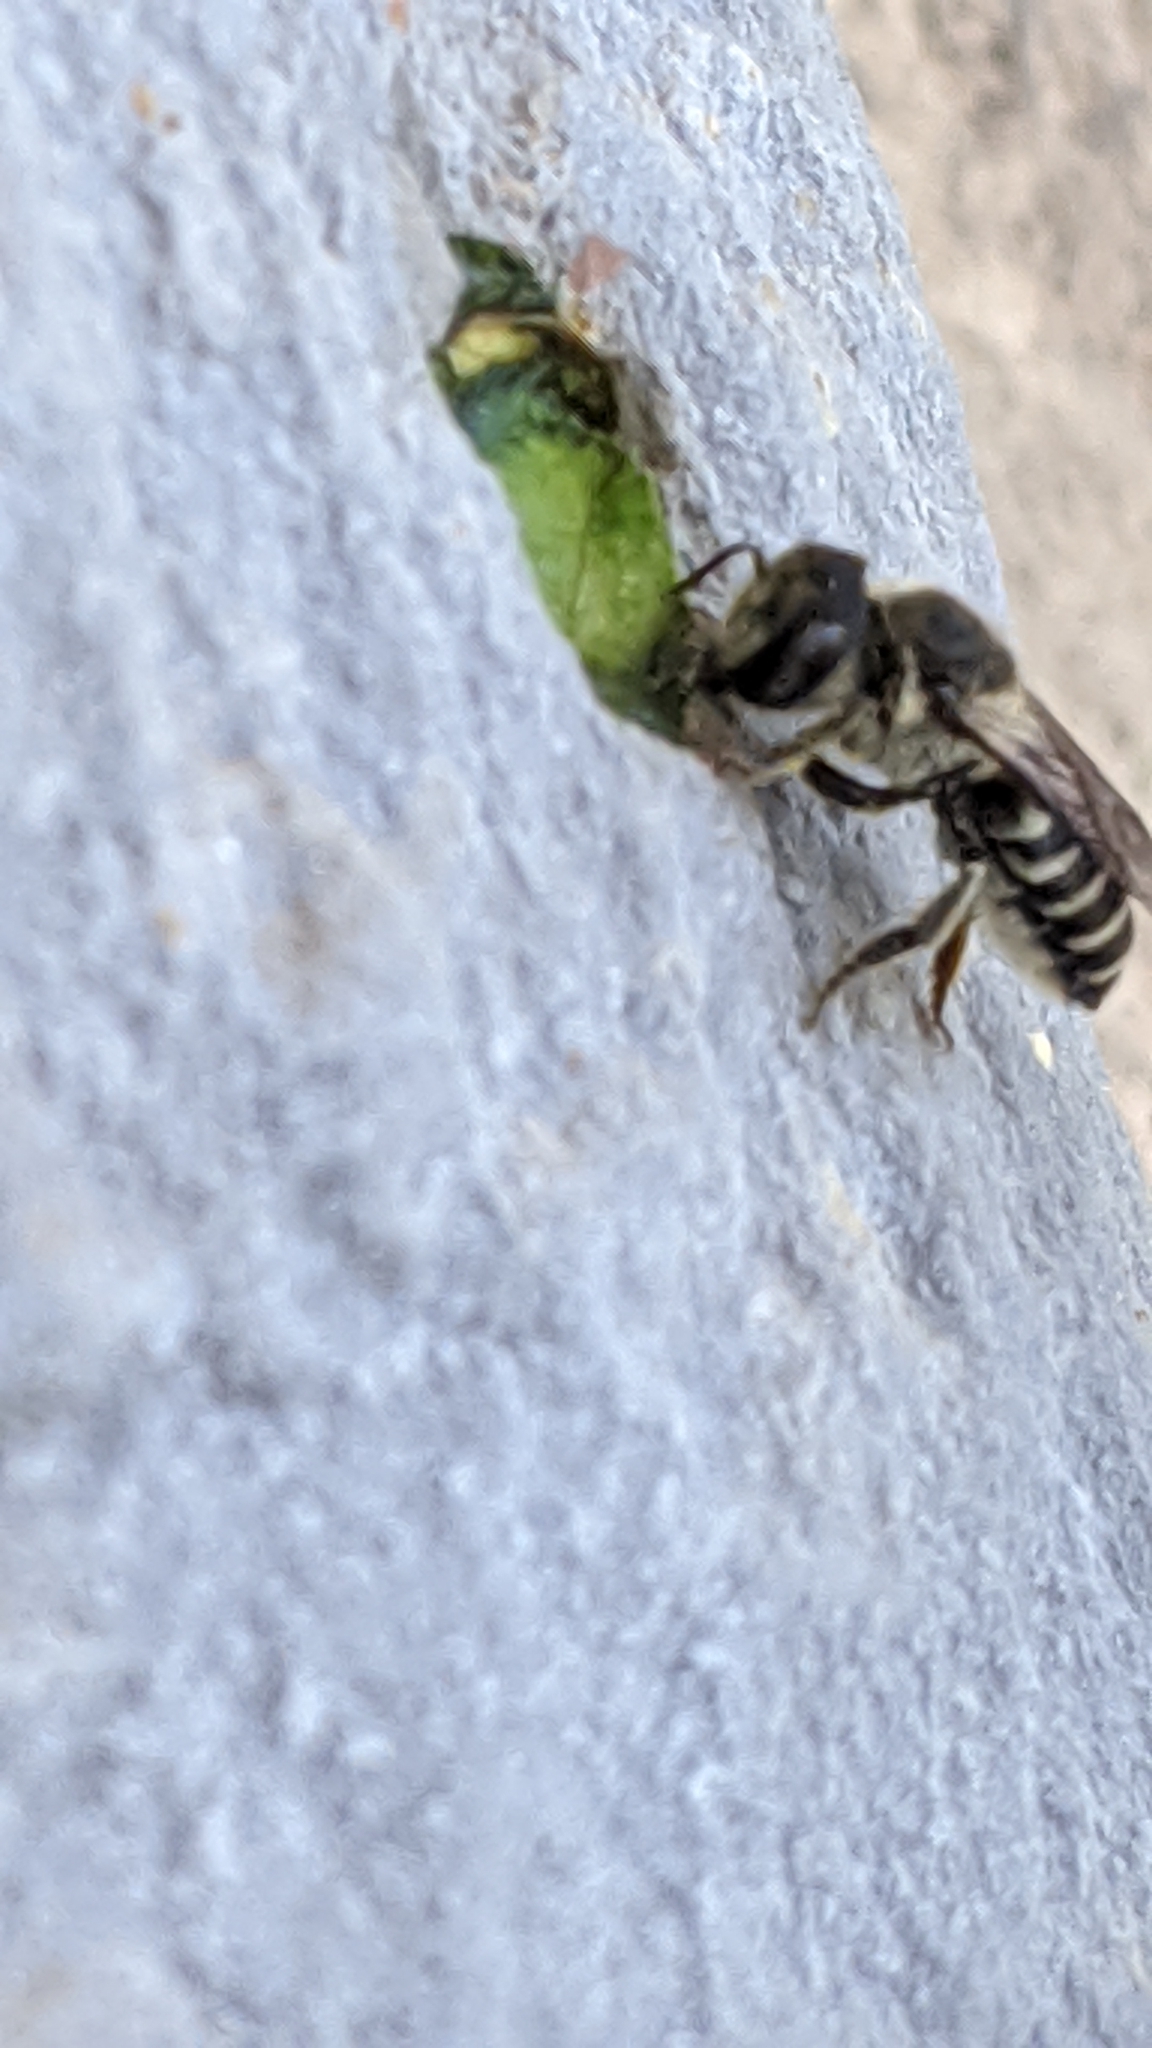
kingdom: Animalia
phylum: Arthropoda
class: Insecta
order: Hymenoptera
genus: Eutricharaea
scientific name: Eutricharaea
